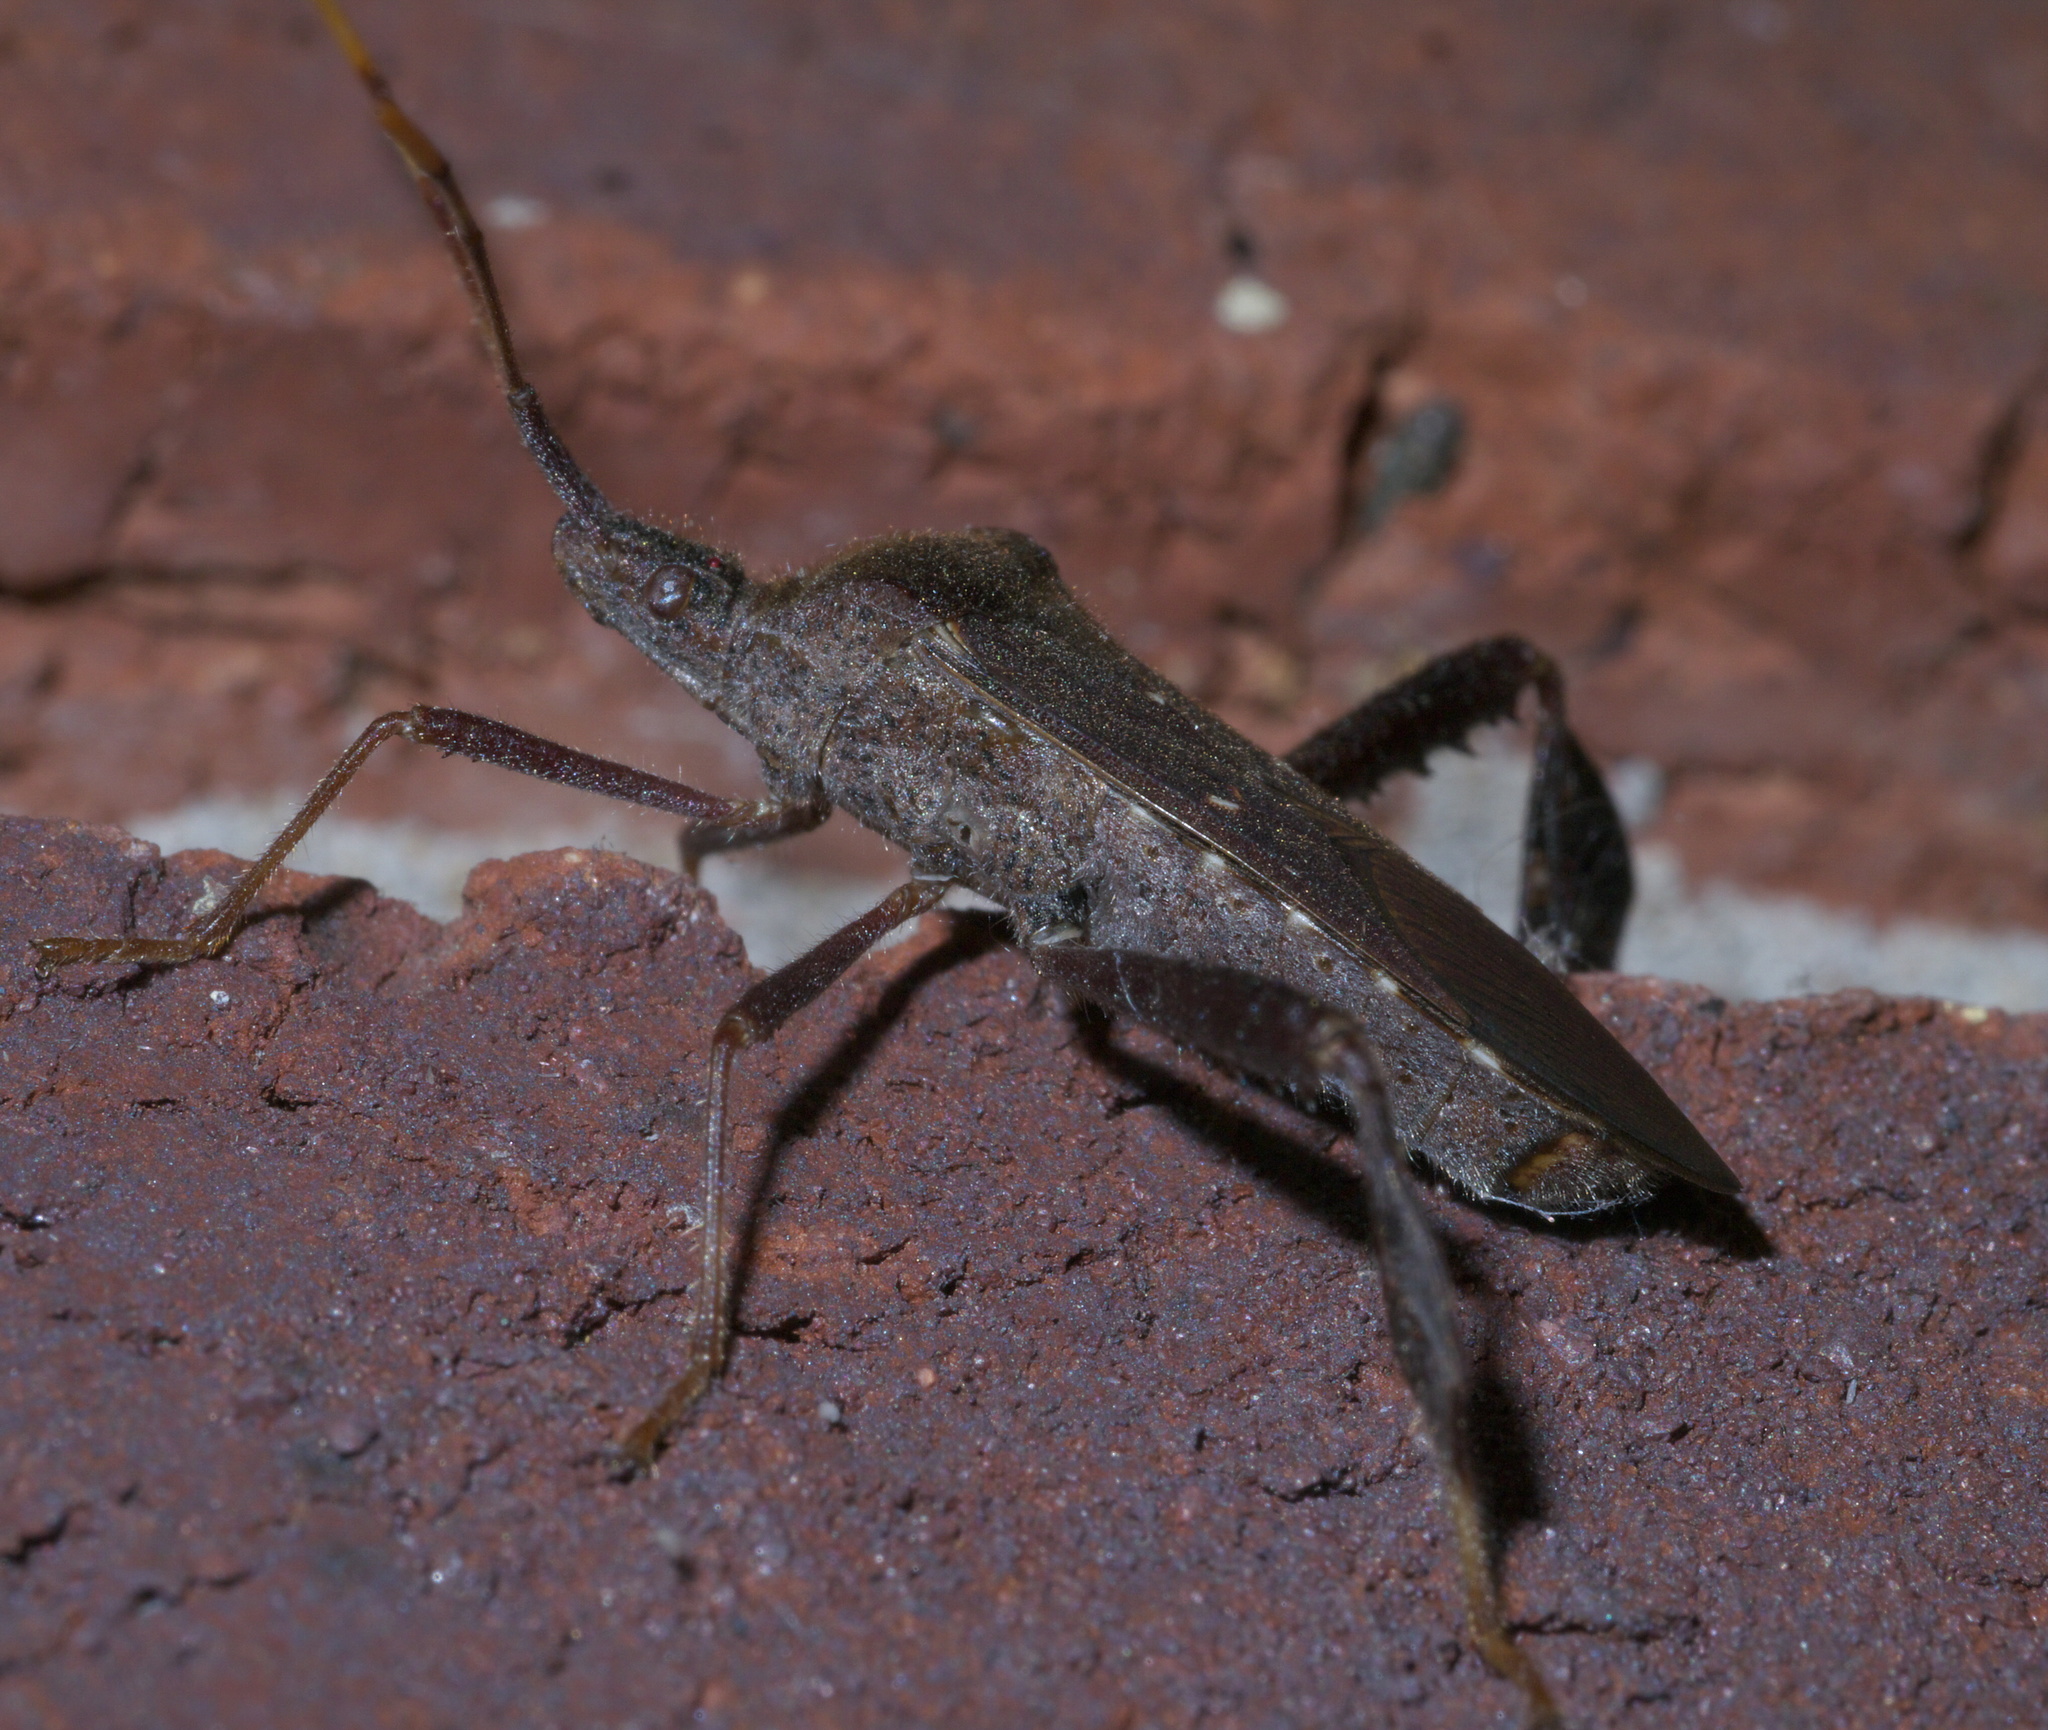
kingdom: Animalia
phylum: Arthropoda
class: Insecta
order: Hemiptera
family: Coreidae
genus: Leptoglossus
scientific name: Leptoglossus oppositus
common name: Northern leaf-footed bug
